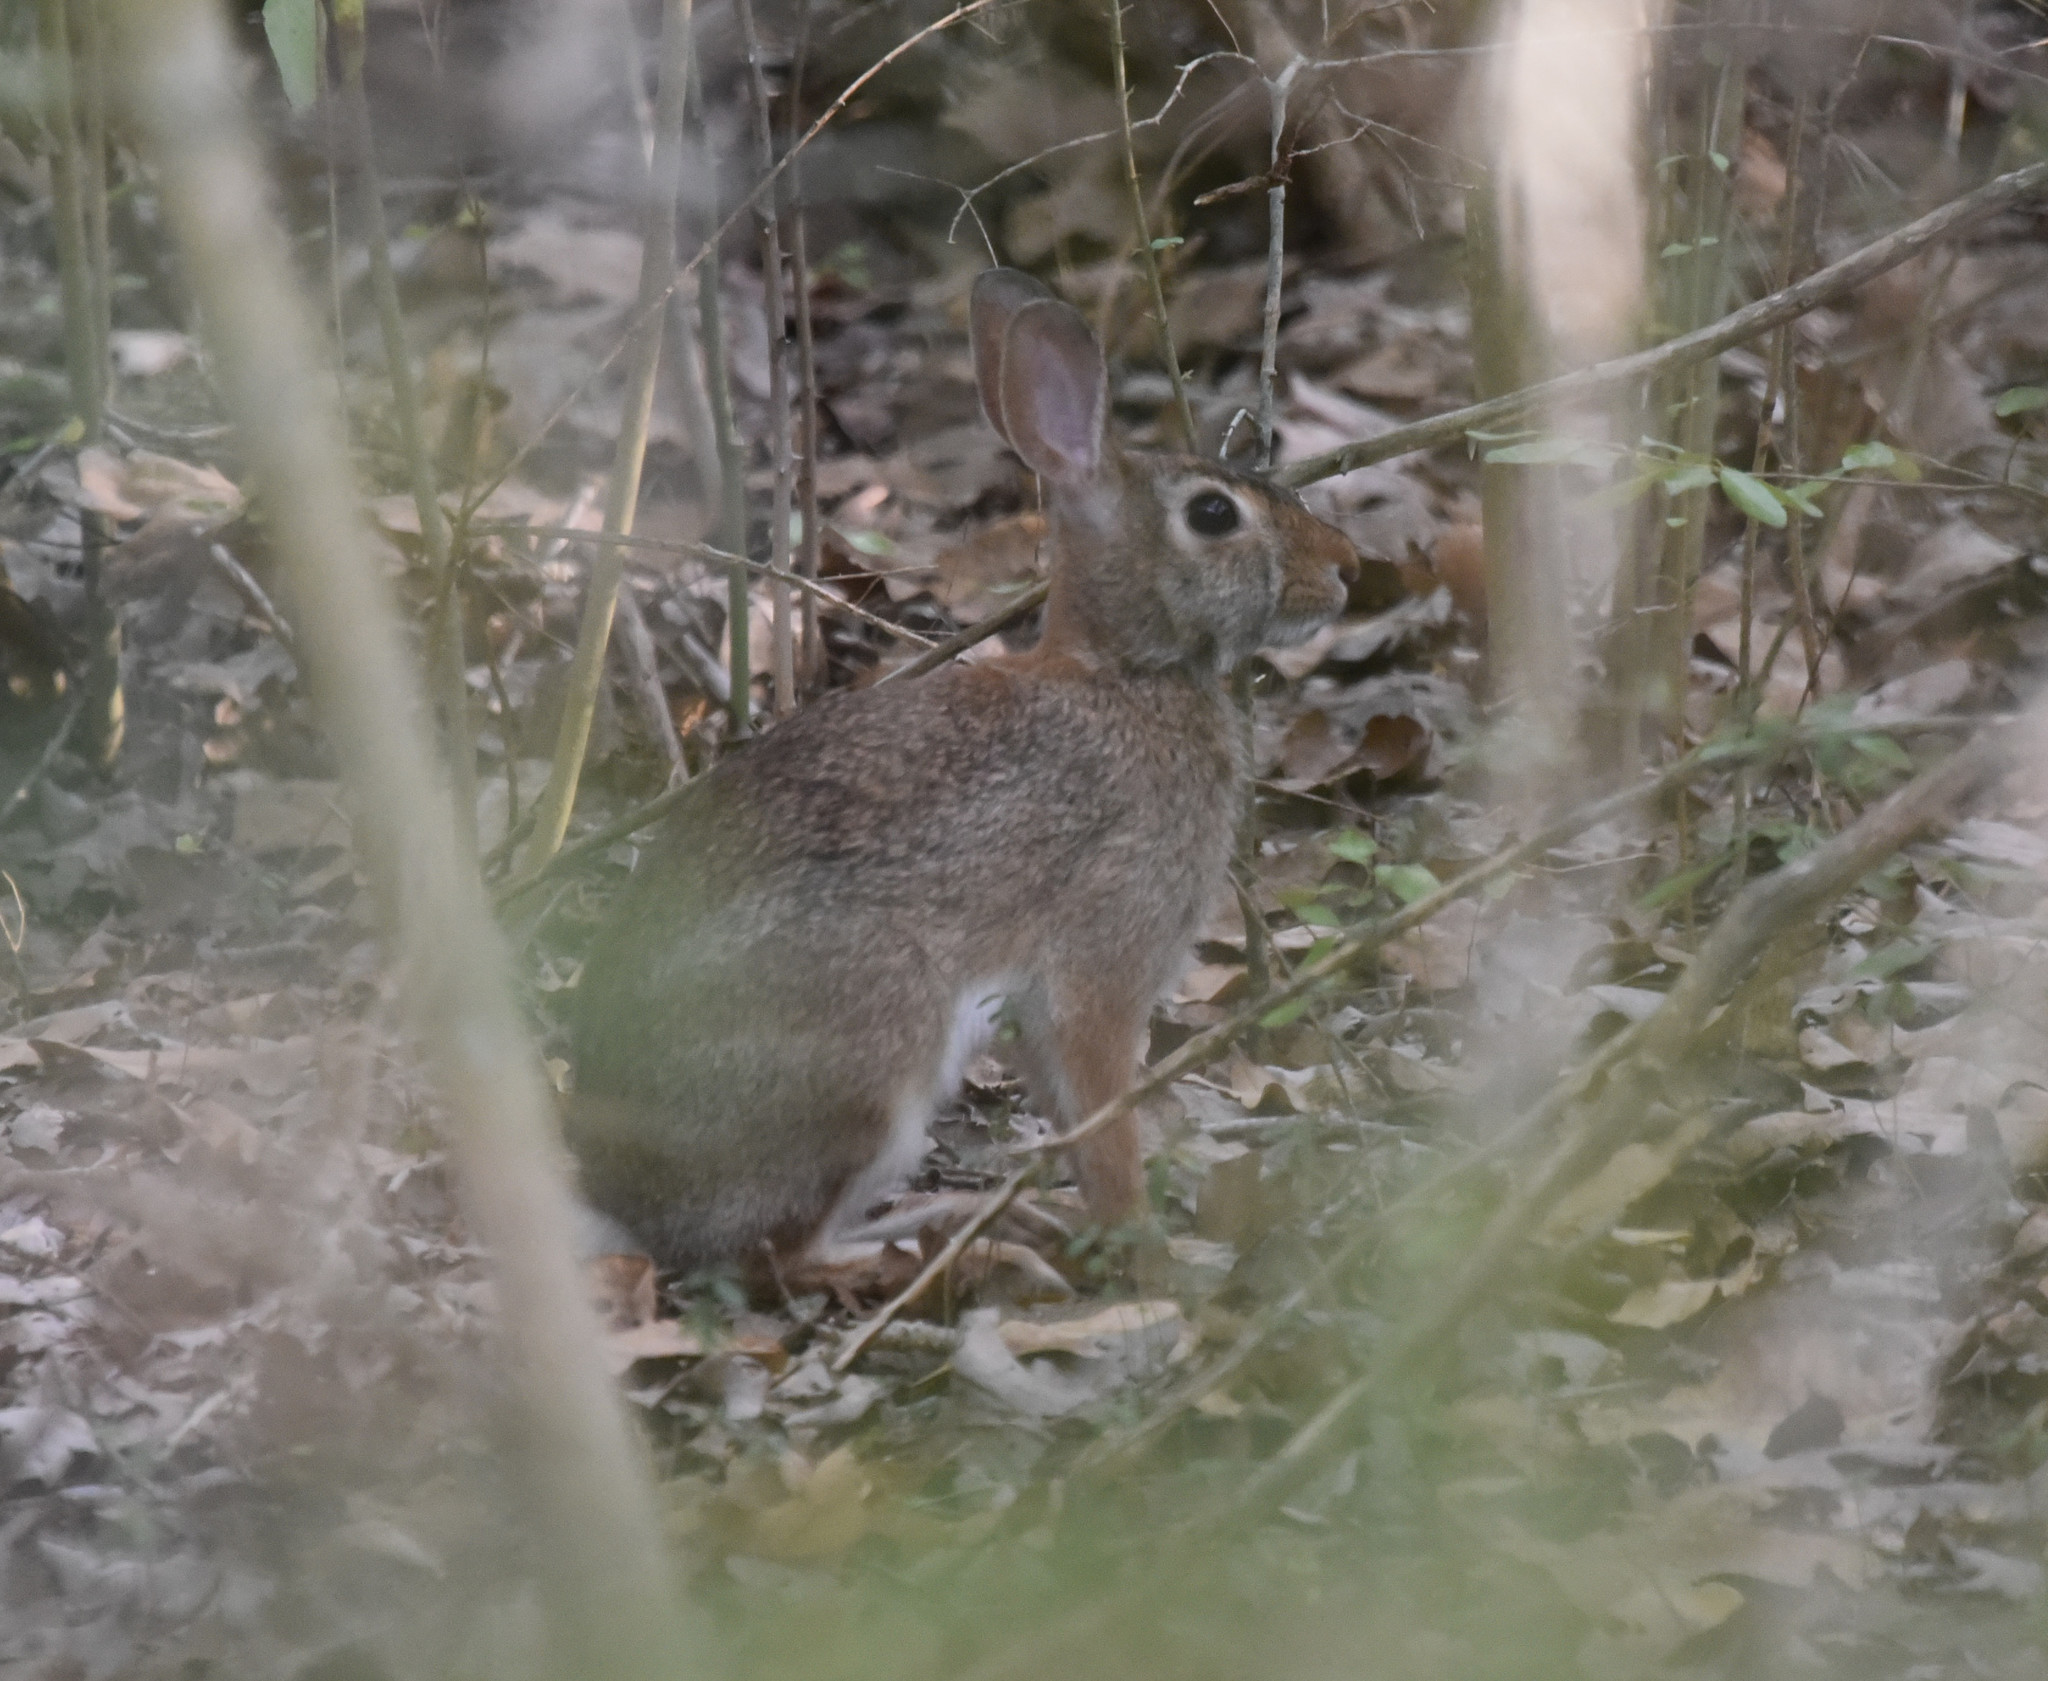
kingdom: Animalia
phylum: Chordata
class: Mammalia
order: Lagomorpha
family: Leporidae
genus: Sylvilagus
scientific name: Sylvilagus floridanus
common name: Eastern cottontail
